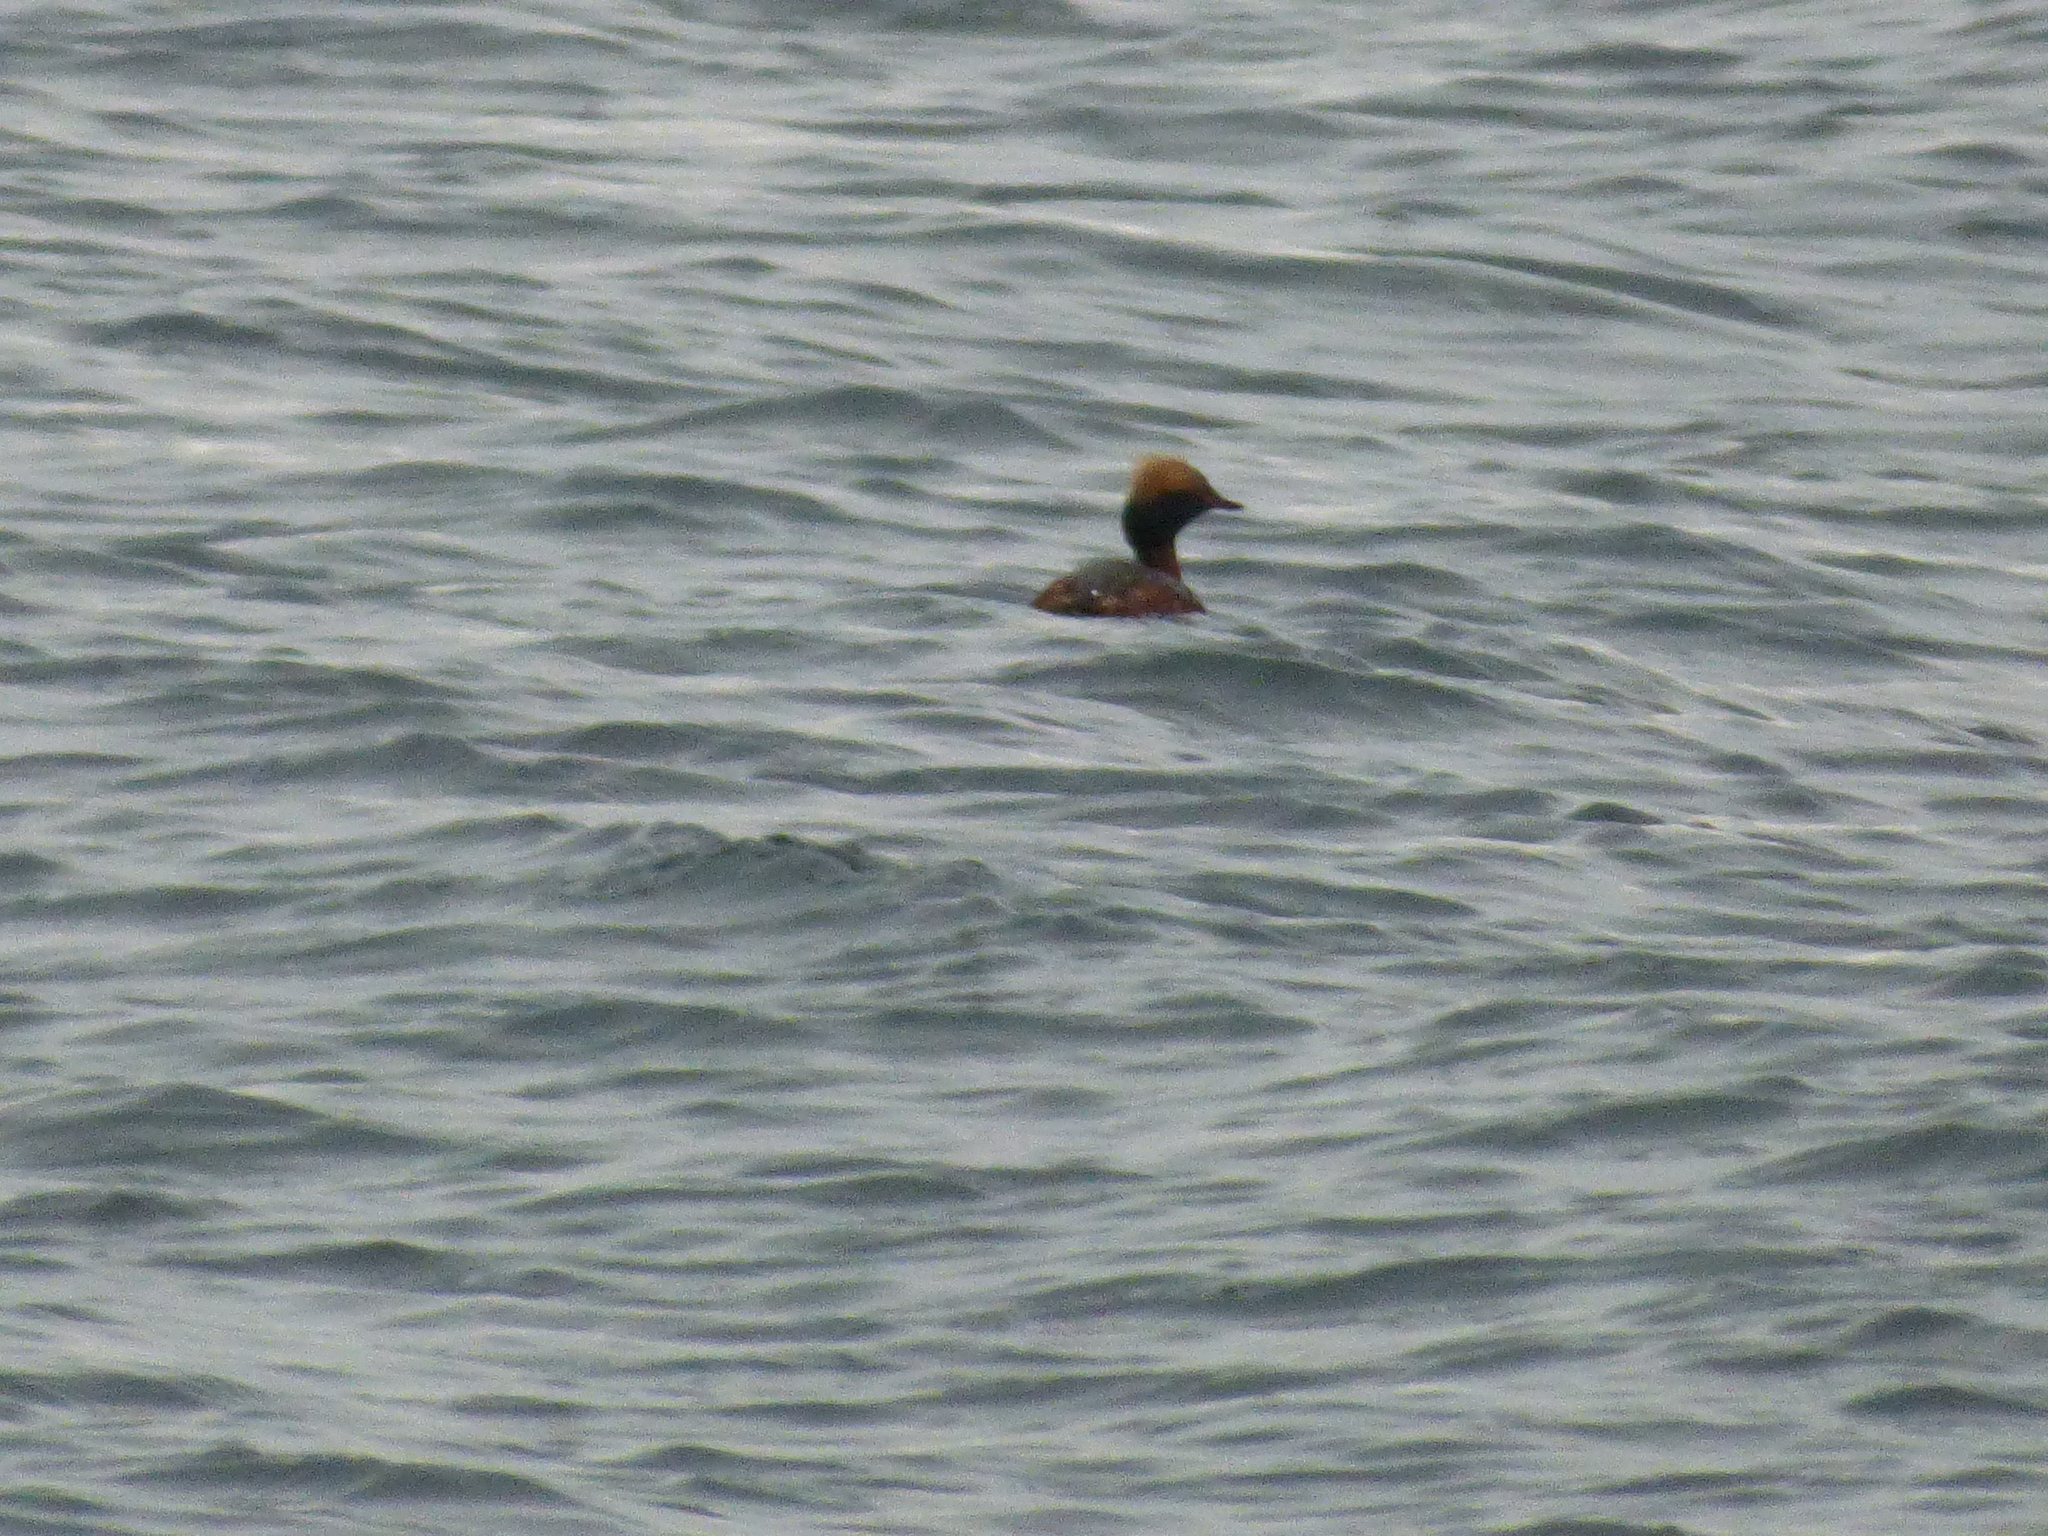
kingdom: Animalia
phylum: Chordata
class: Aves
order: Podicipediformes
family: Podicipedidae
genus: Podiceps
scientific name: Podiceps auritus
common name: Horned grebe
